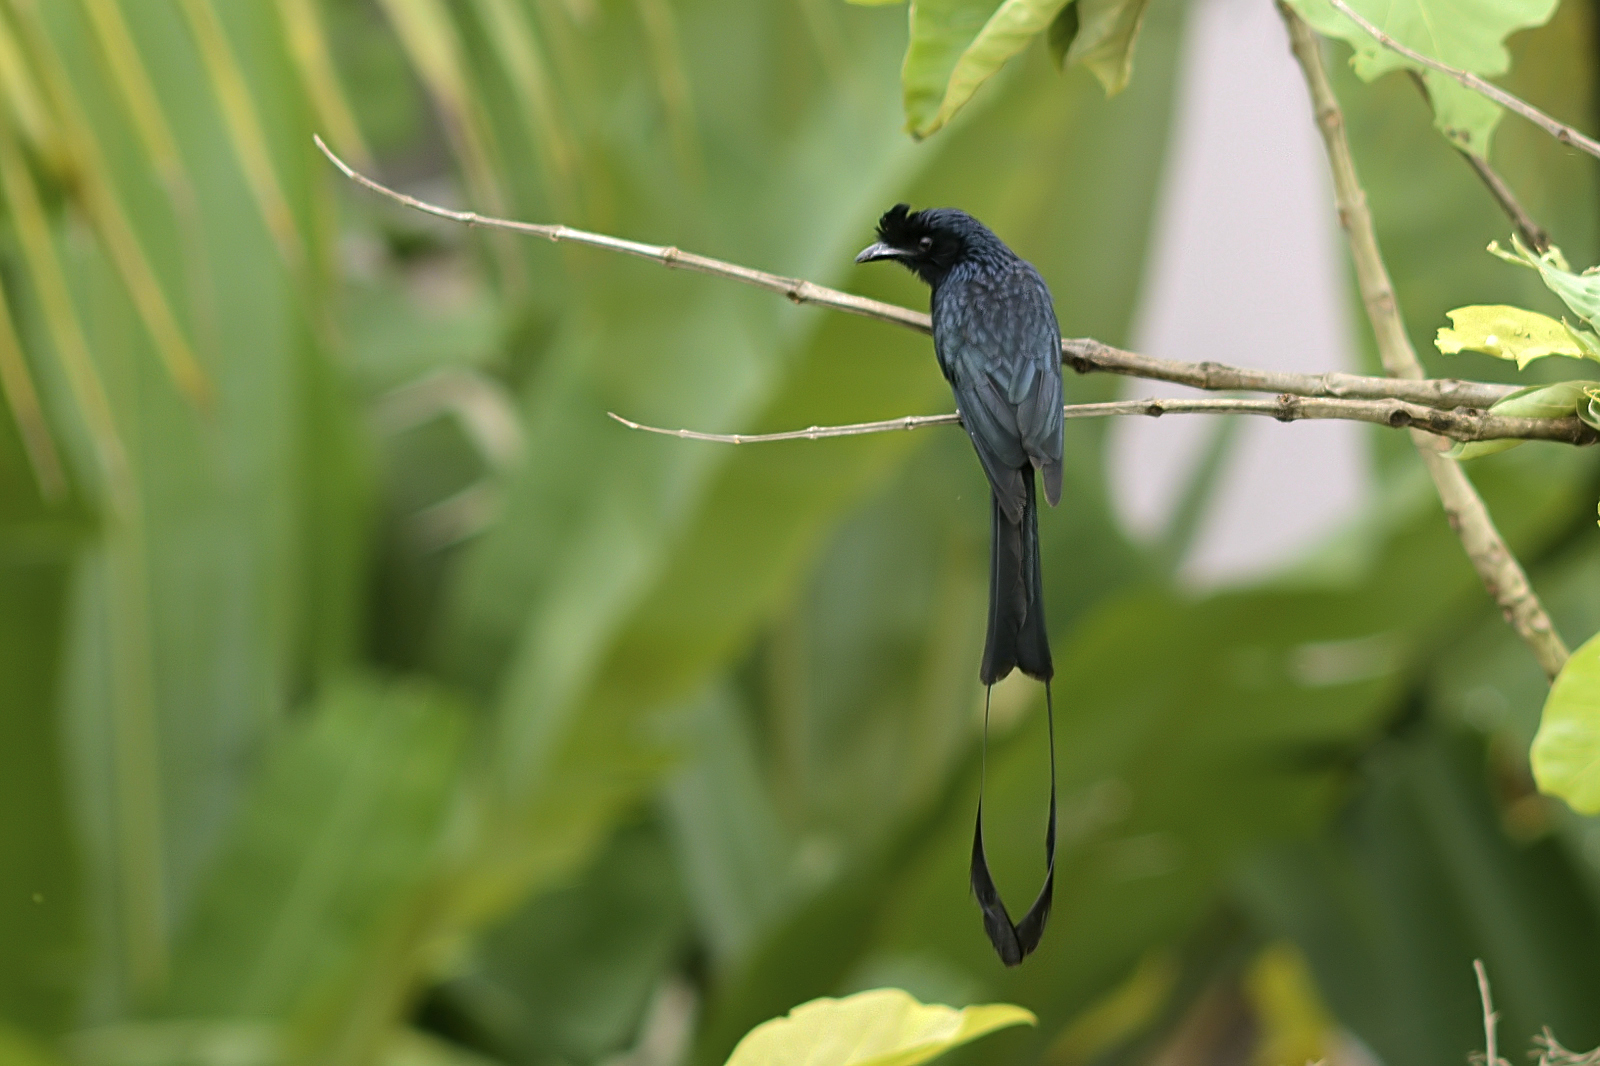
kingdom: Animalia
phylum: Chordata
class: Aves
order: Passeriformes
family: Dicruridae
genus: Dicrurus
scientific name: Dicrurus paradiseus
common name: Greater racket-tailed drongo
